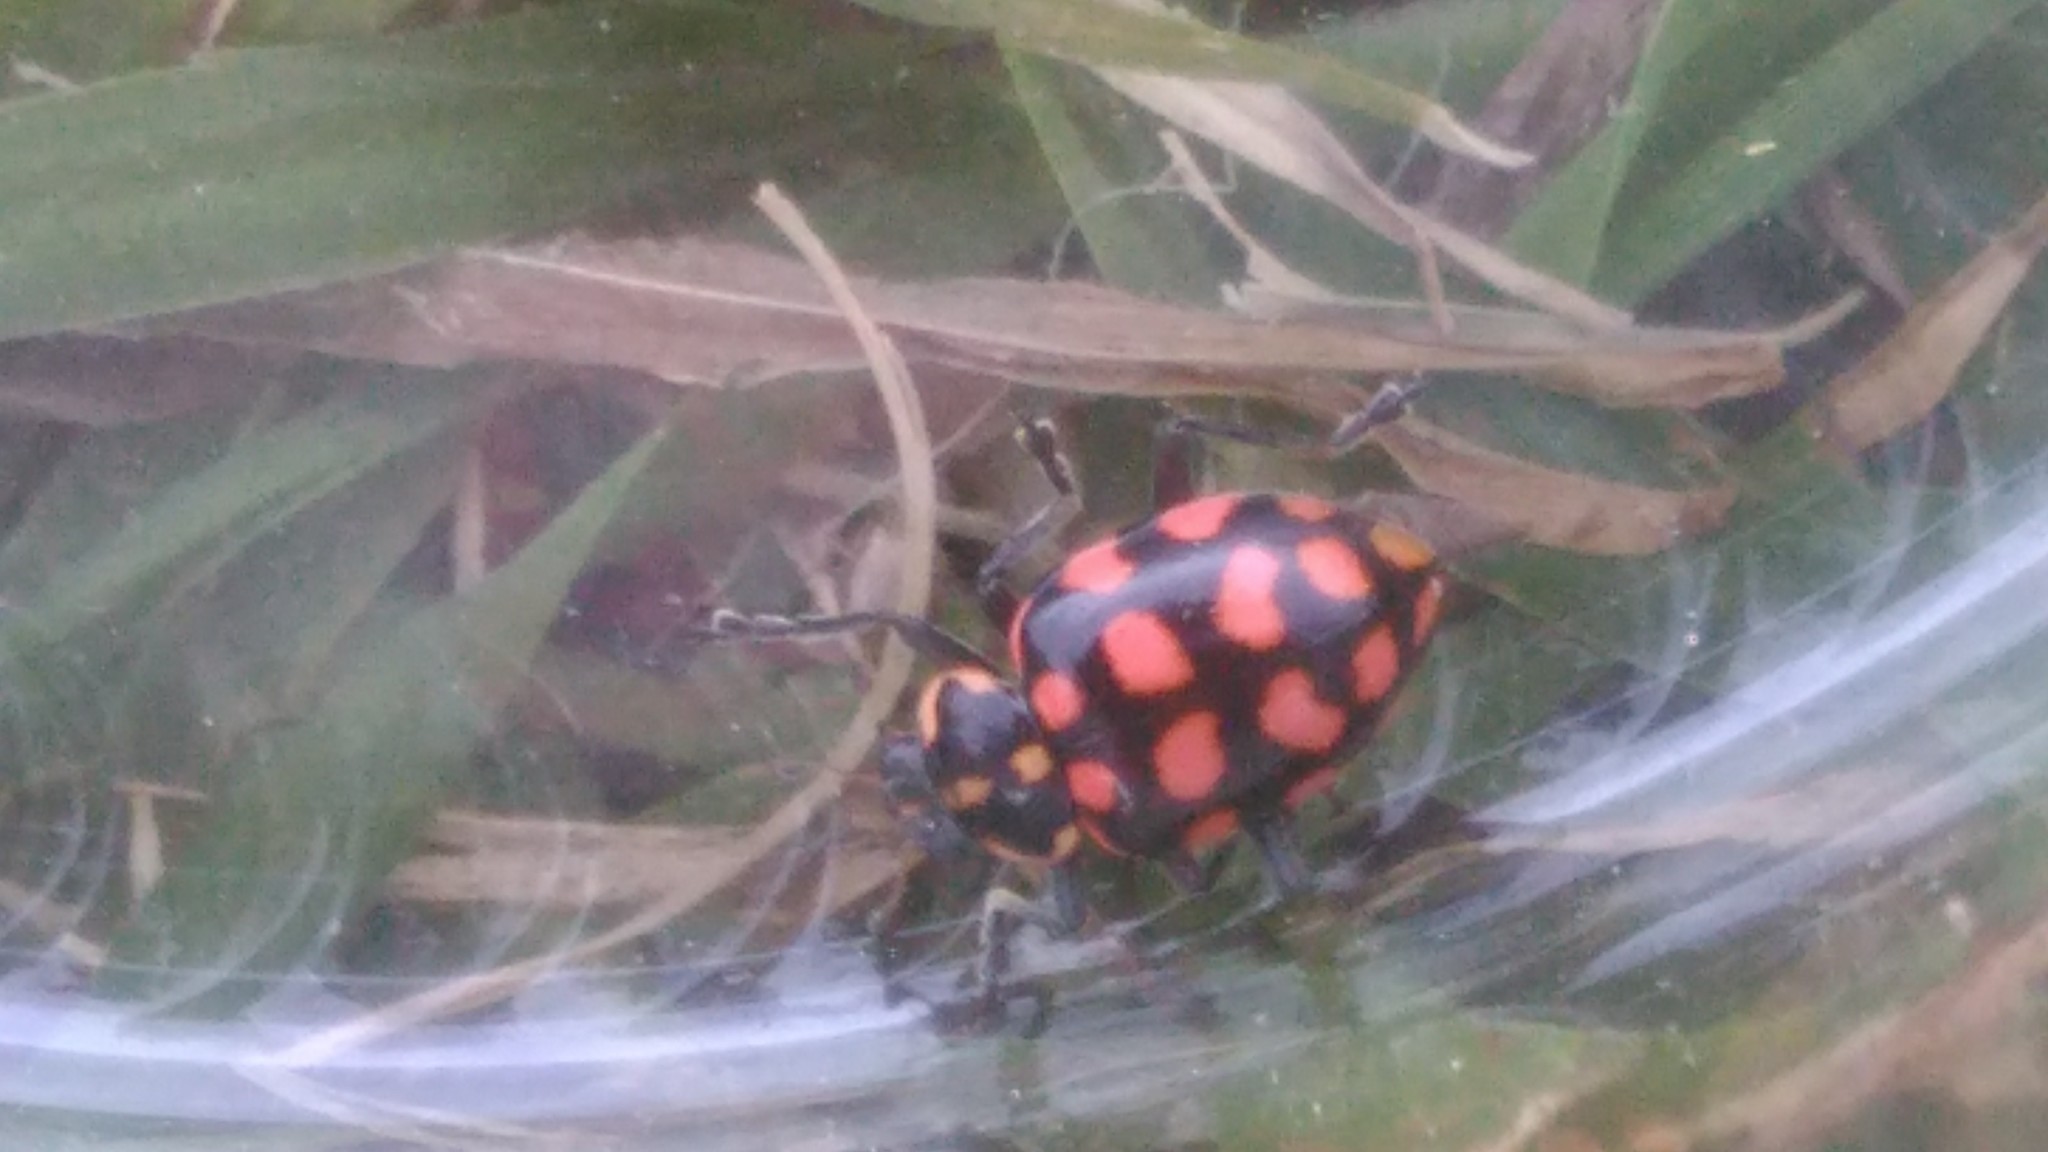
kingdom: Animalia
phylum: Arthropoda
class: Insecta
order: Coleoptera
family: Coccinellidae
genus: Coleomegilla
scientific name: Coleomegilla
